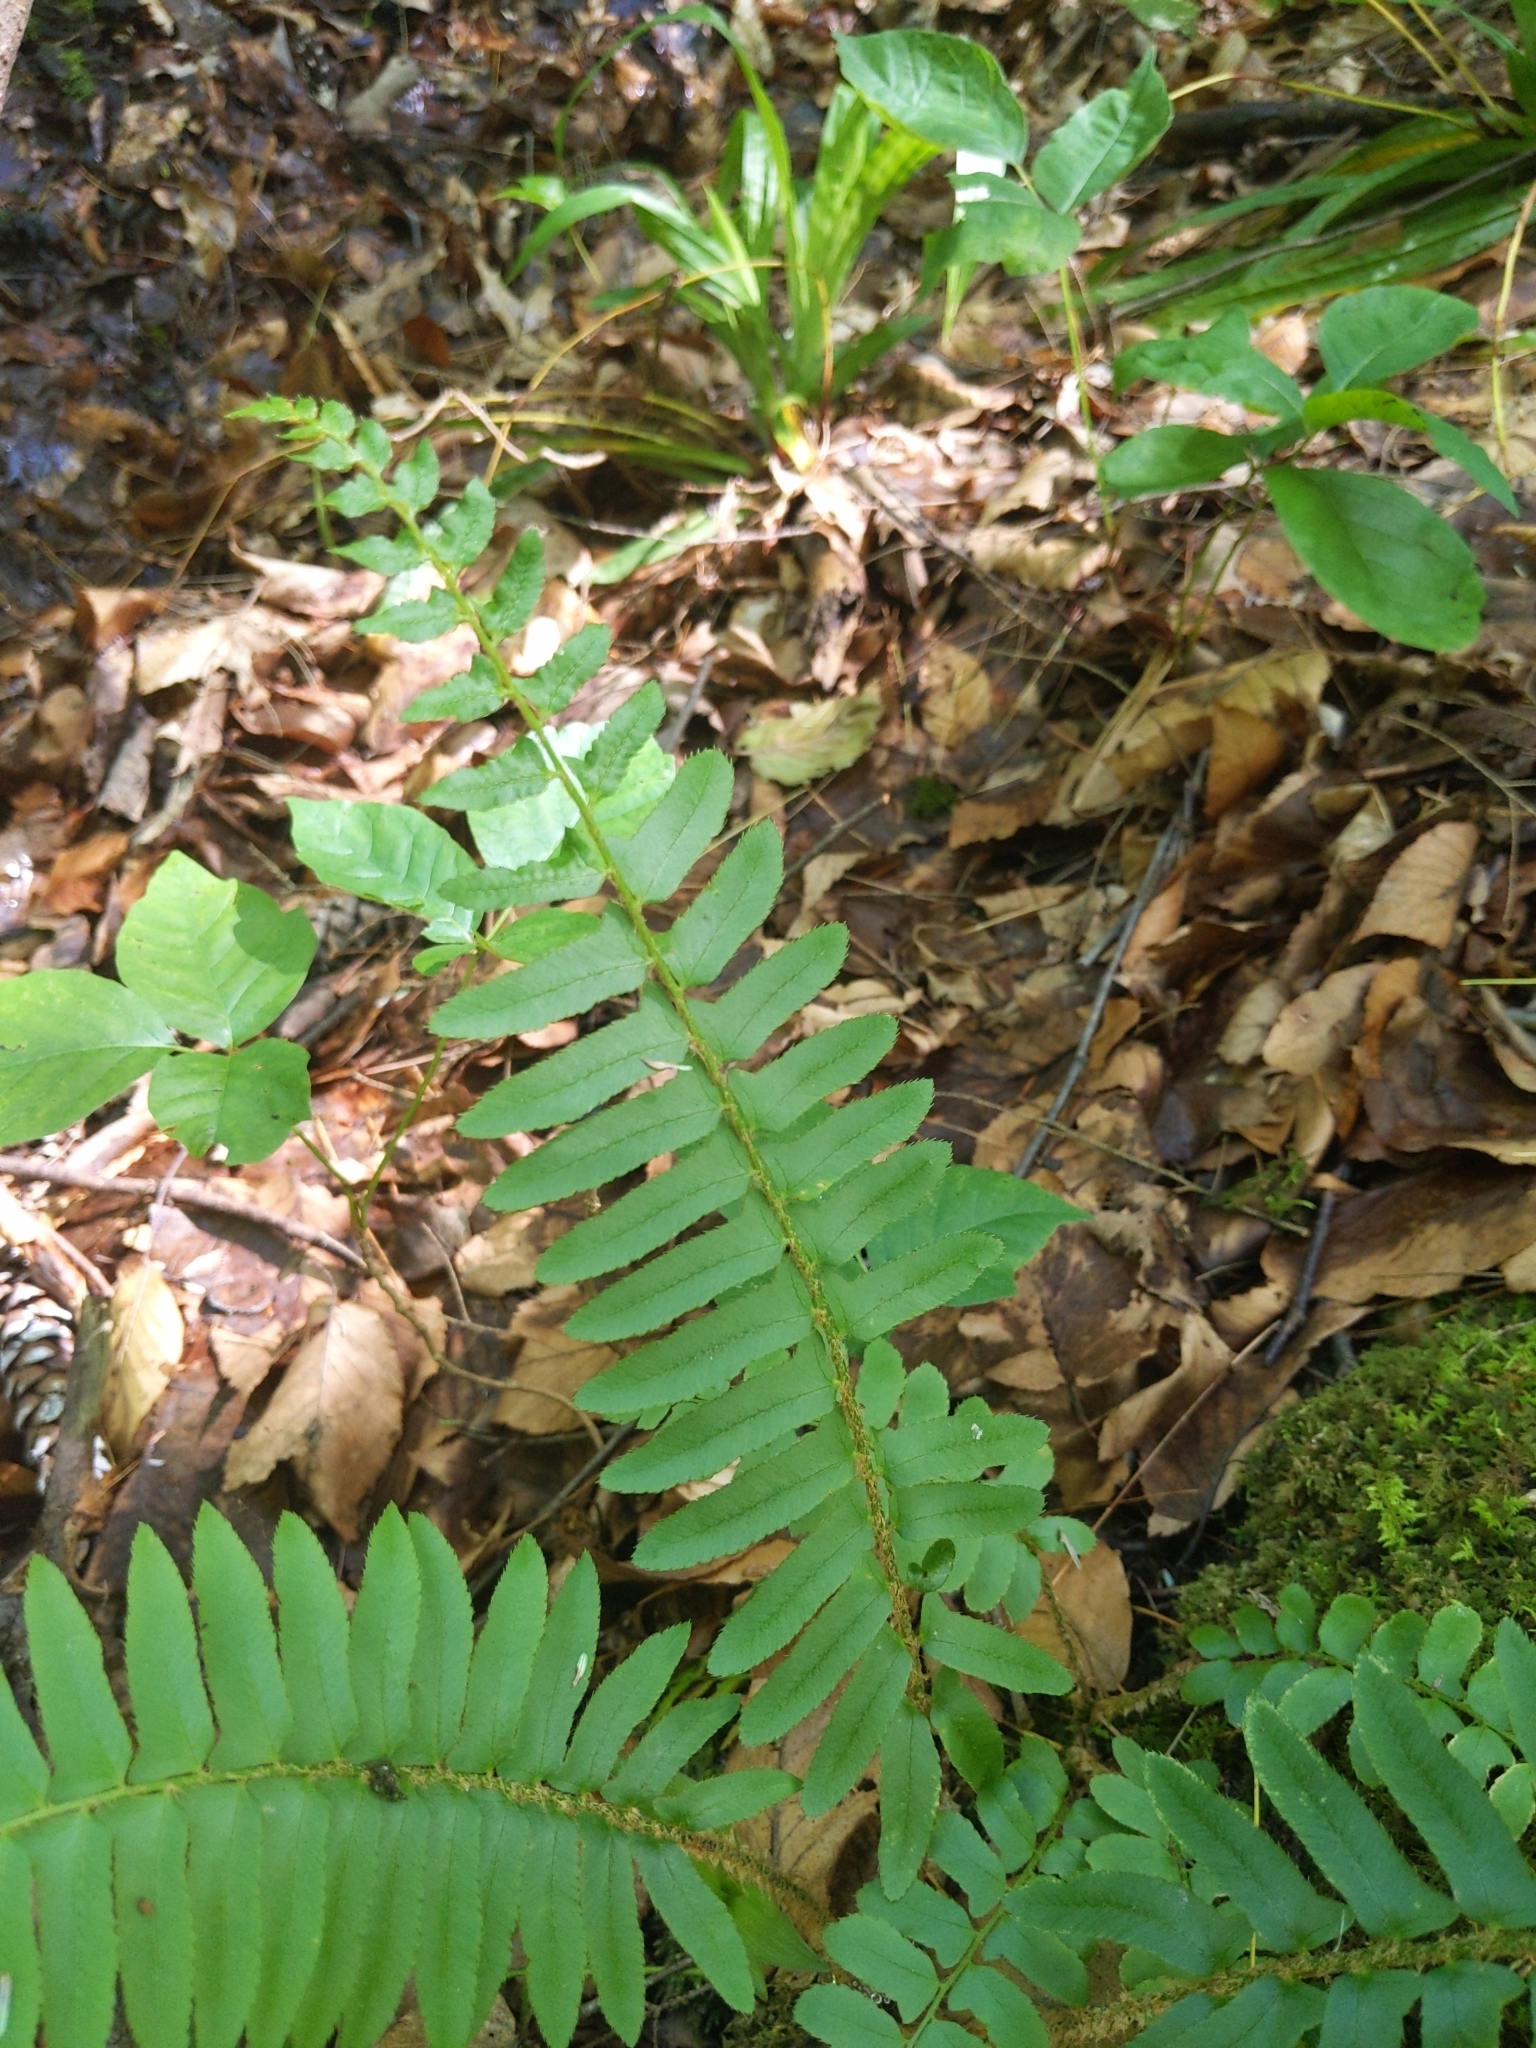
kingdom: Plantae
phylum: Tracheophyta
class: Polypodiopsida
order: Polypodiales
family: Dryopteridaceae
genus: Polystichum
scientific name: Polystichum acrostichoides
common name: Christmas fern
